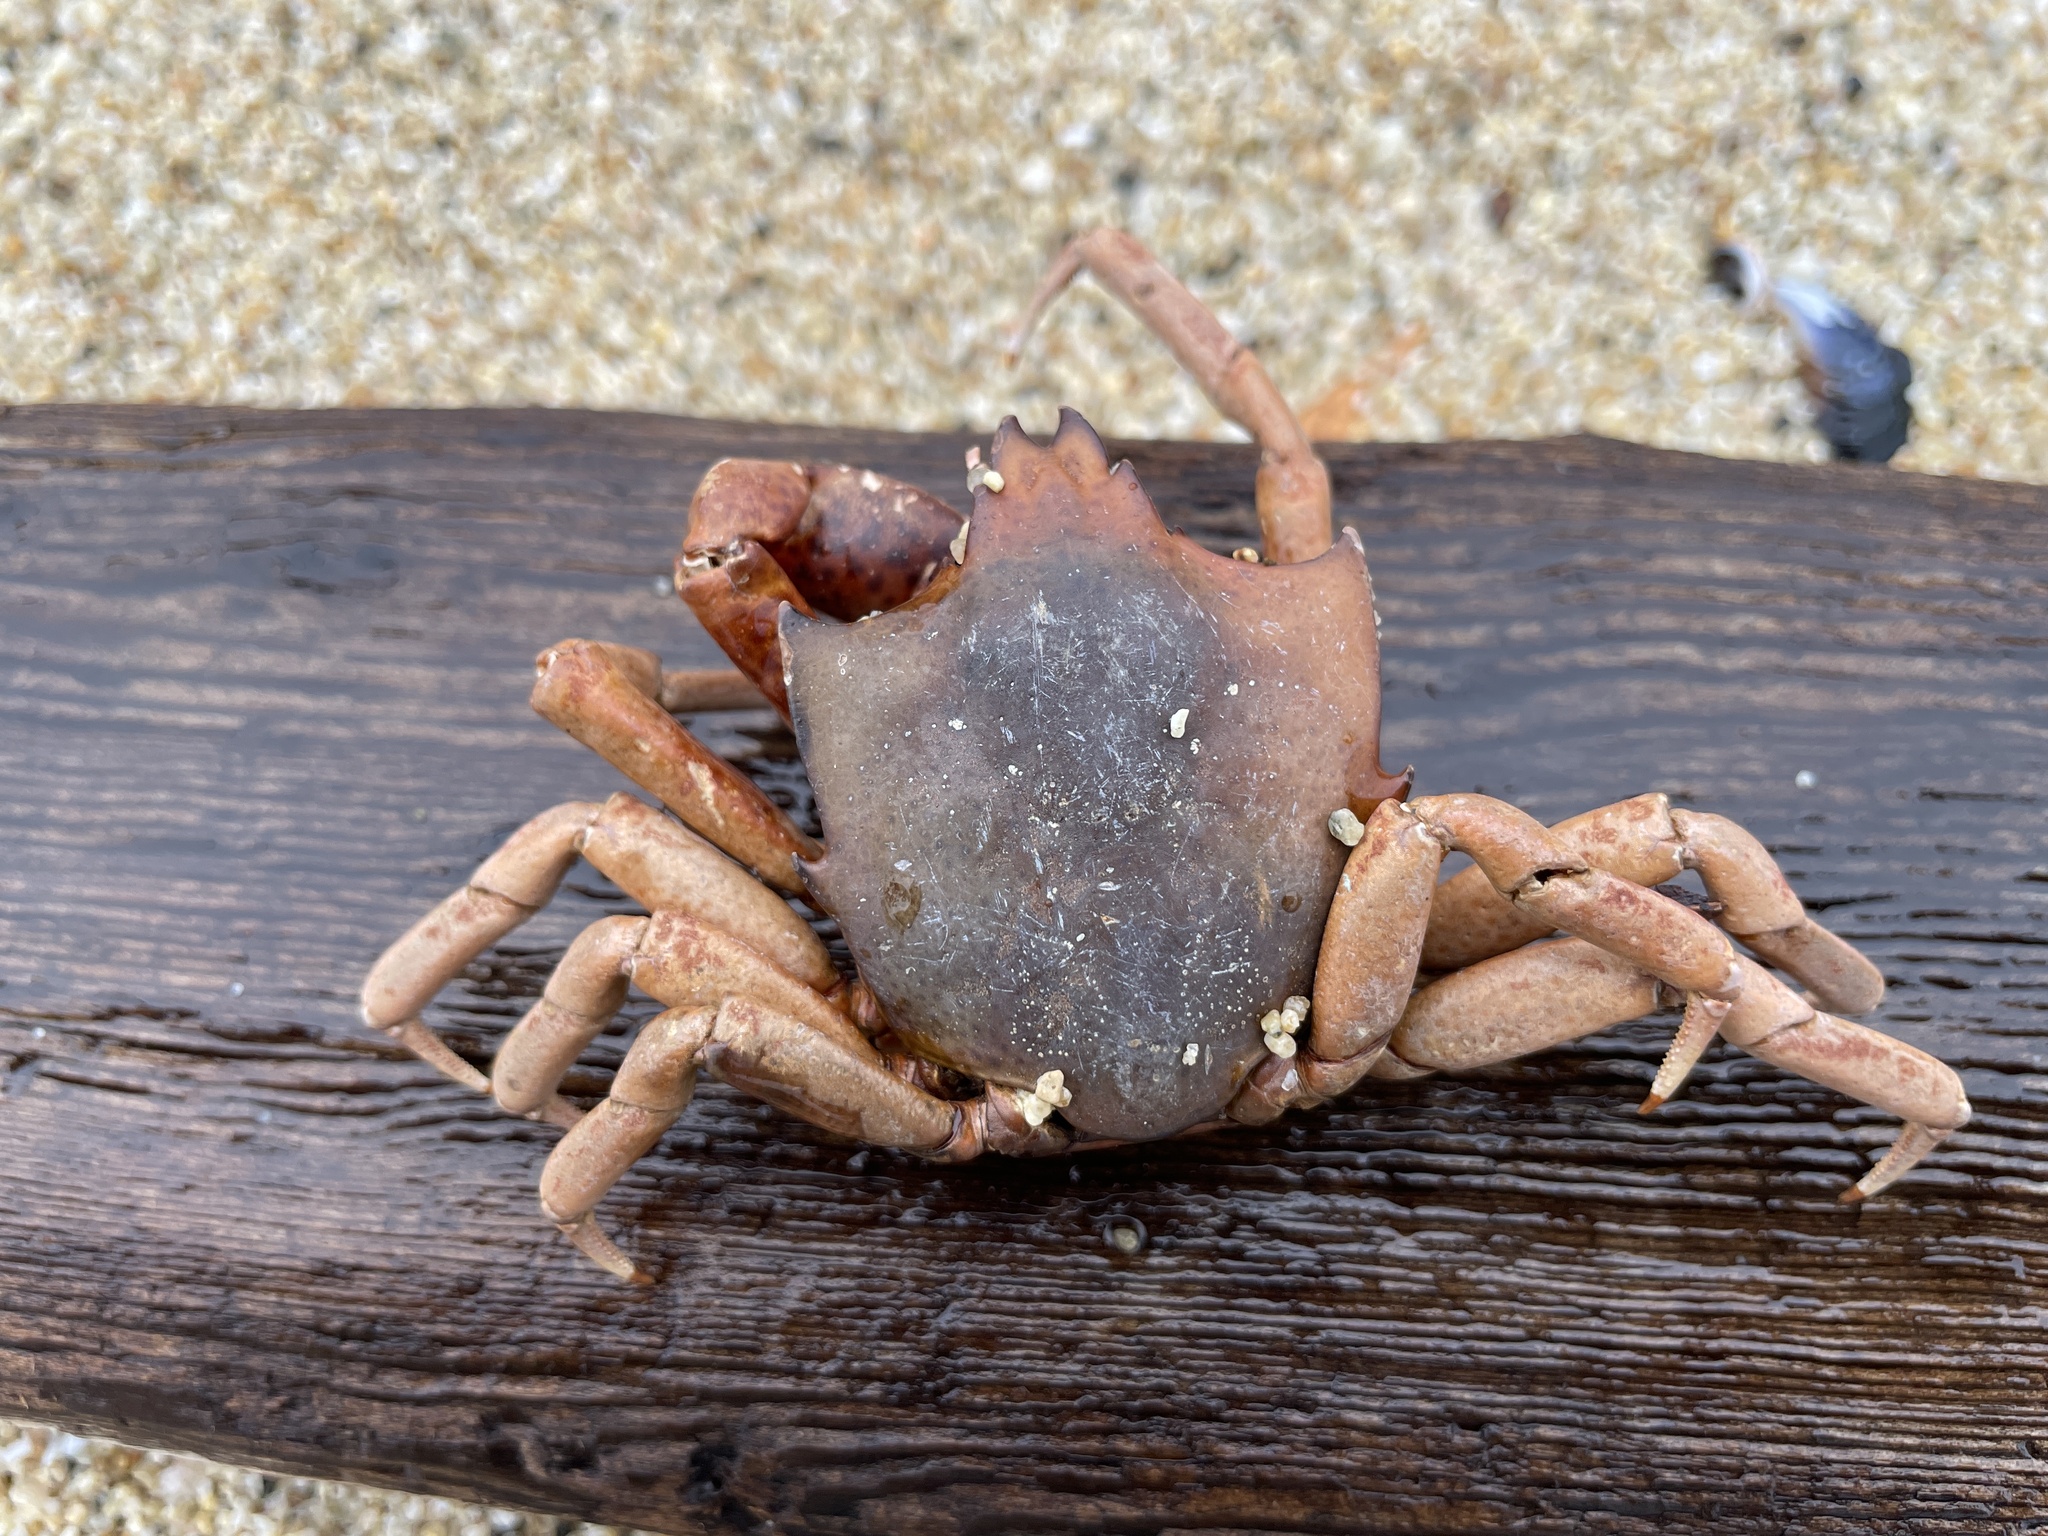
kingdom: Animalia
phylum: Arthropoda
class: Malacostraca
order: Decapoda
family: Epialtidae
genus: Pugettia
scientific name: Pugettia producta
